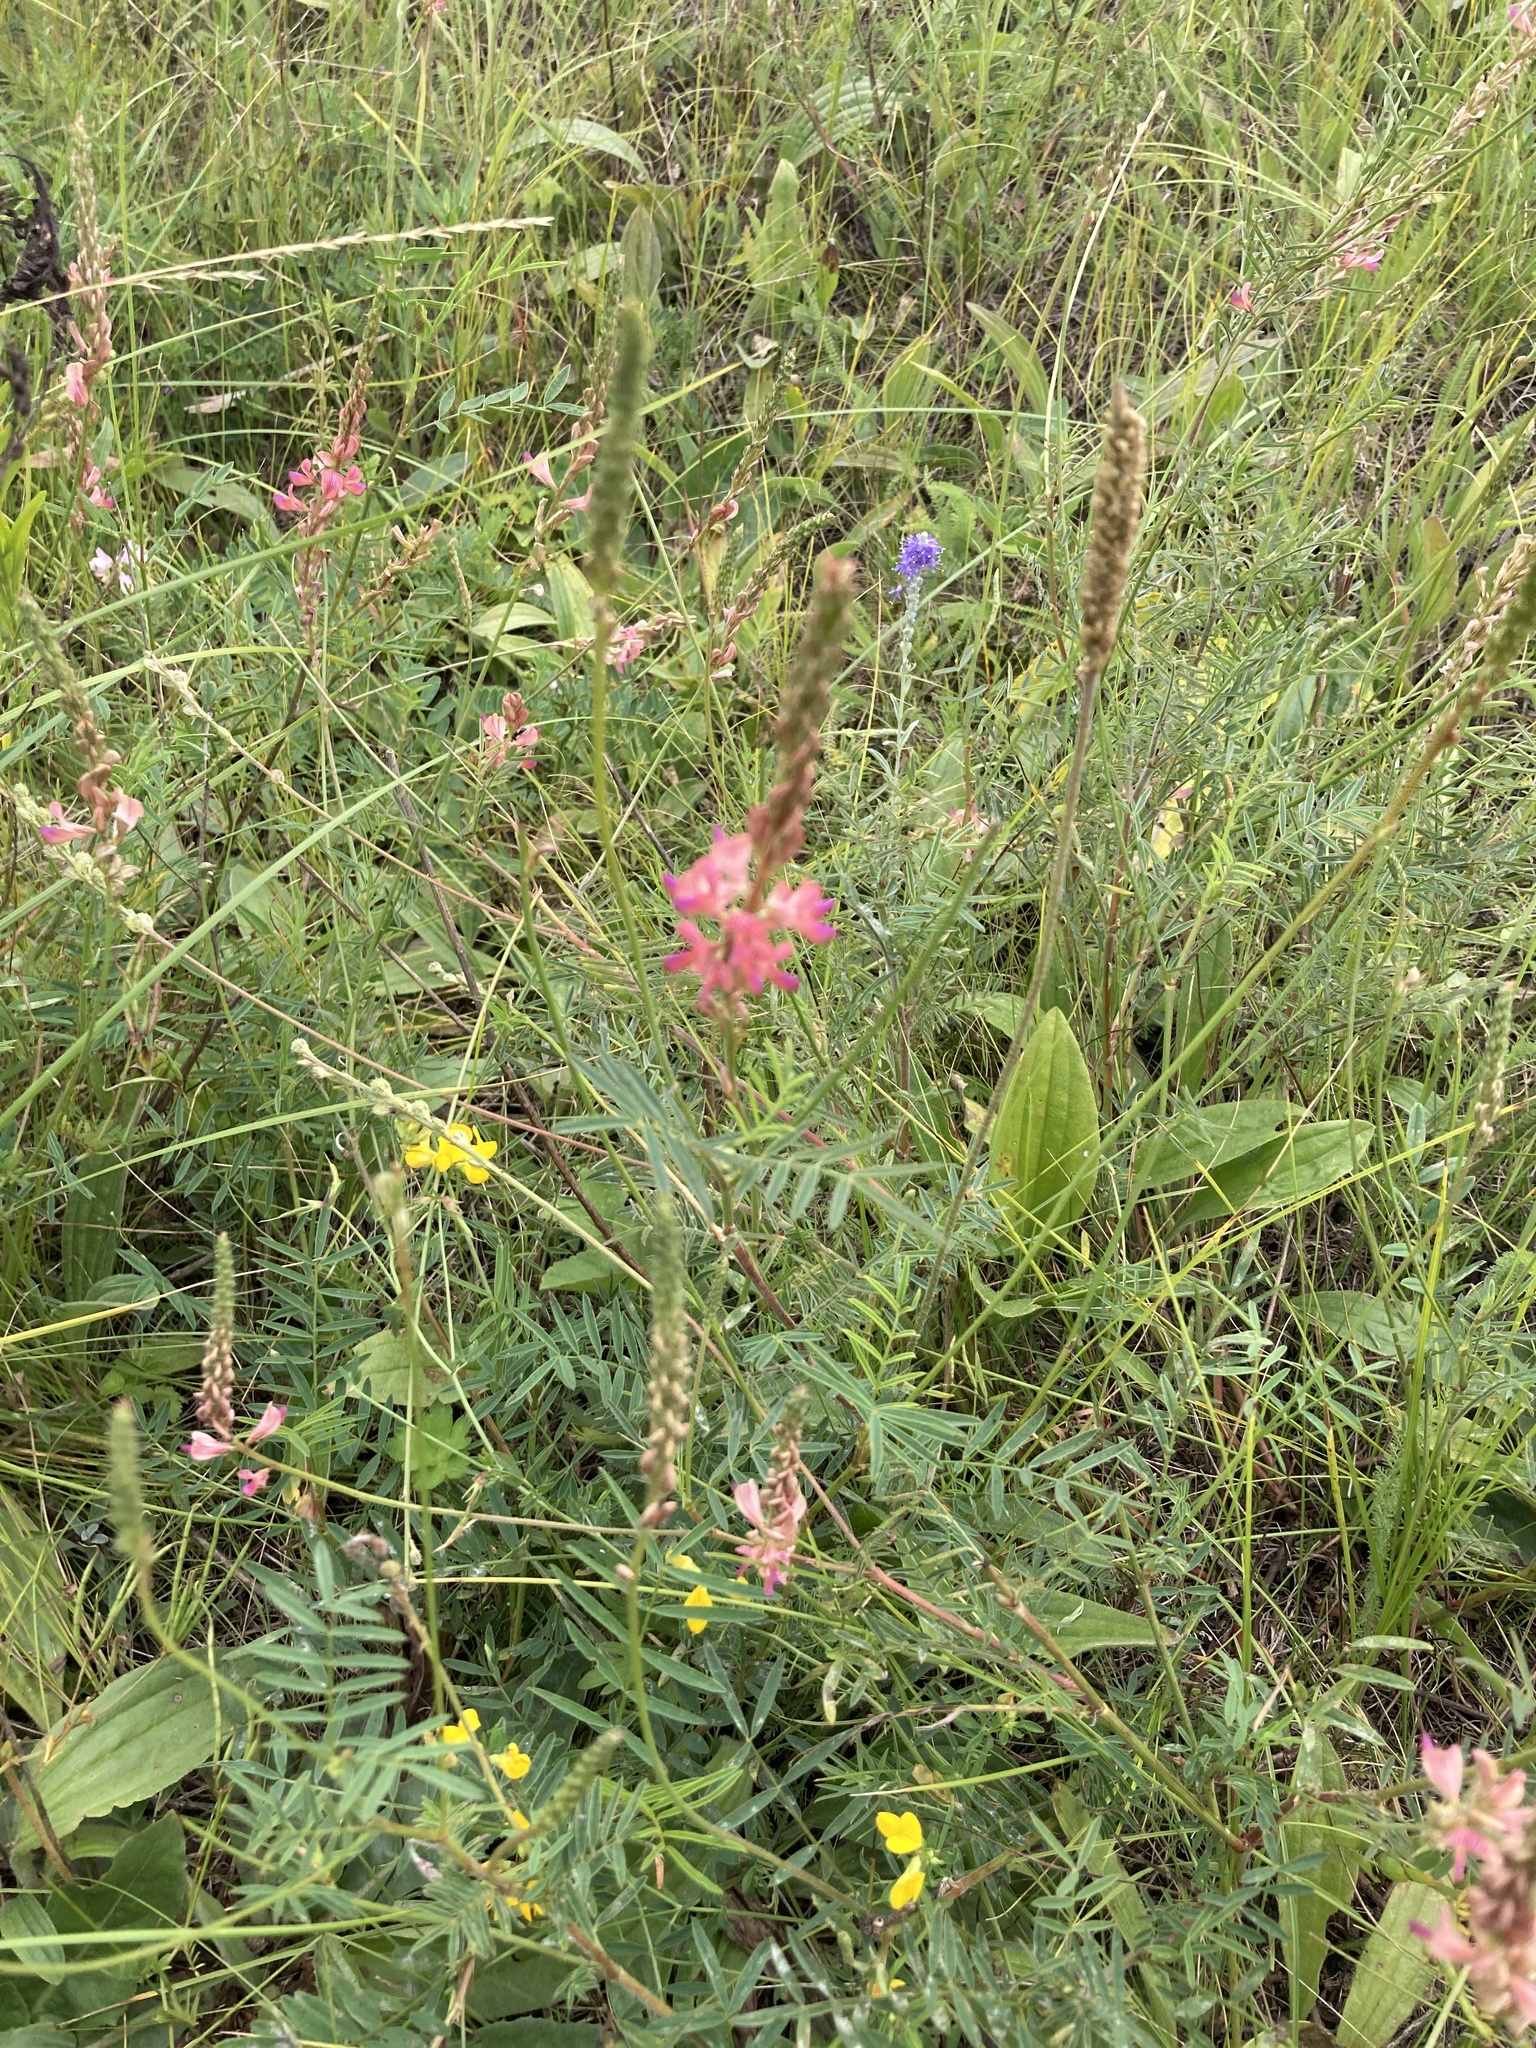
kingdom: Plantae
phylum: Tracheophyta
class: Magnoliopsida
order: Fabales
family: Fabaceae
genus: Onobrychis
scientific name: Onobrychis arenaria
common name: Sand esparcet
